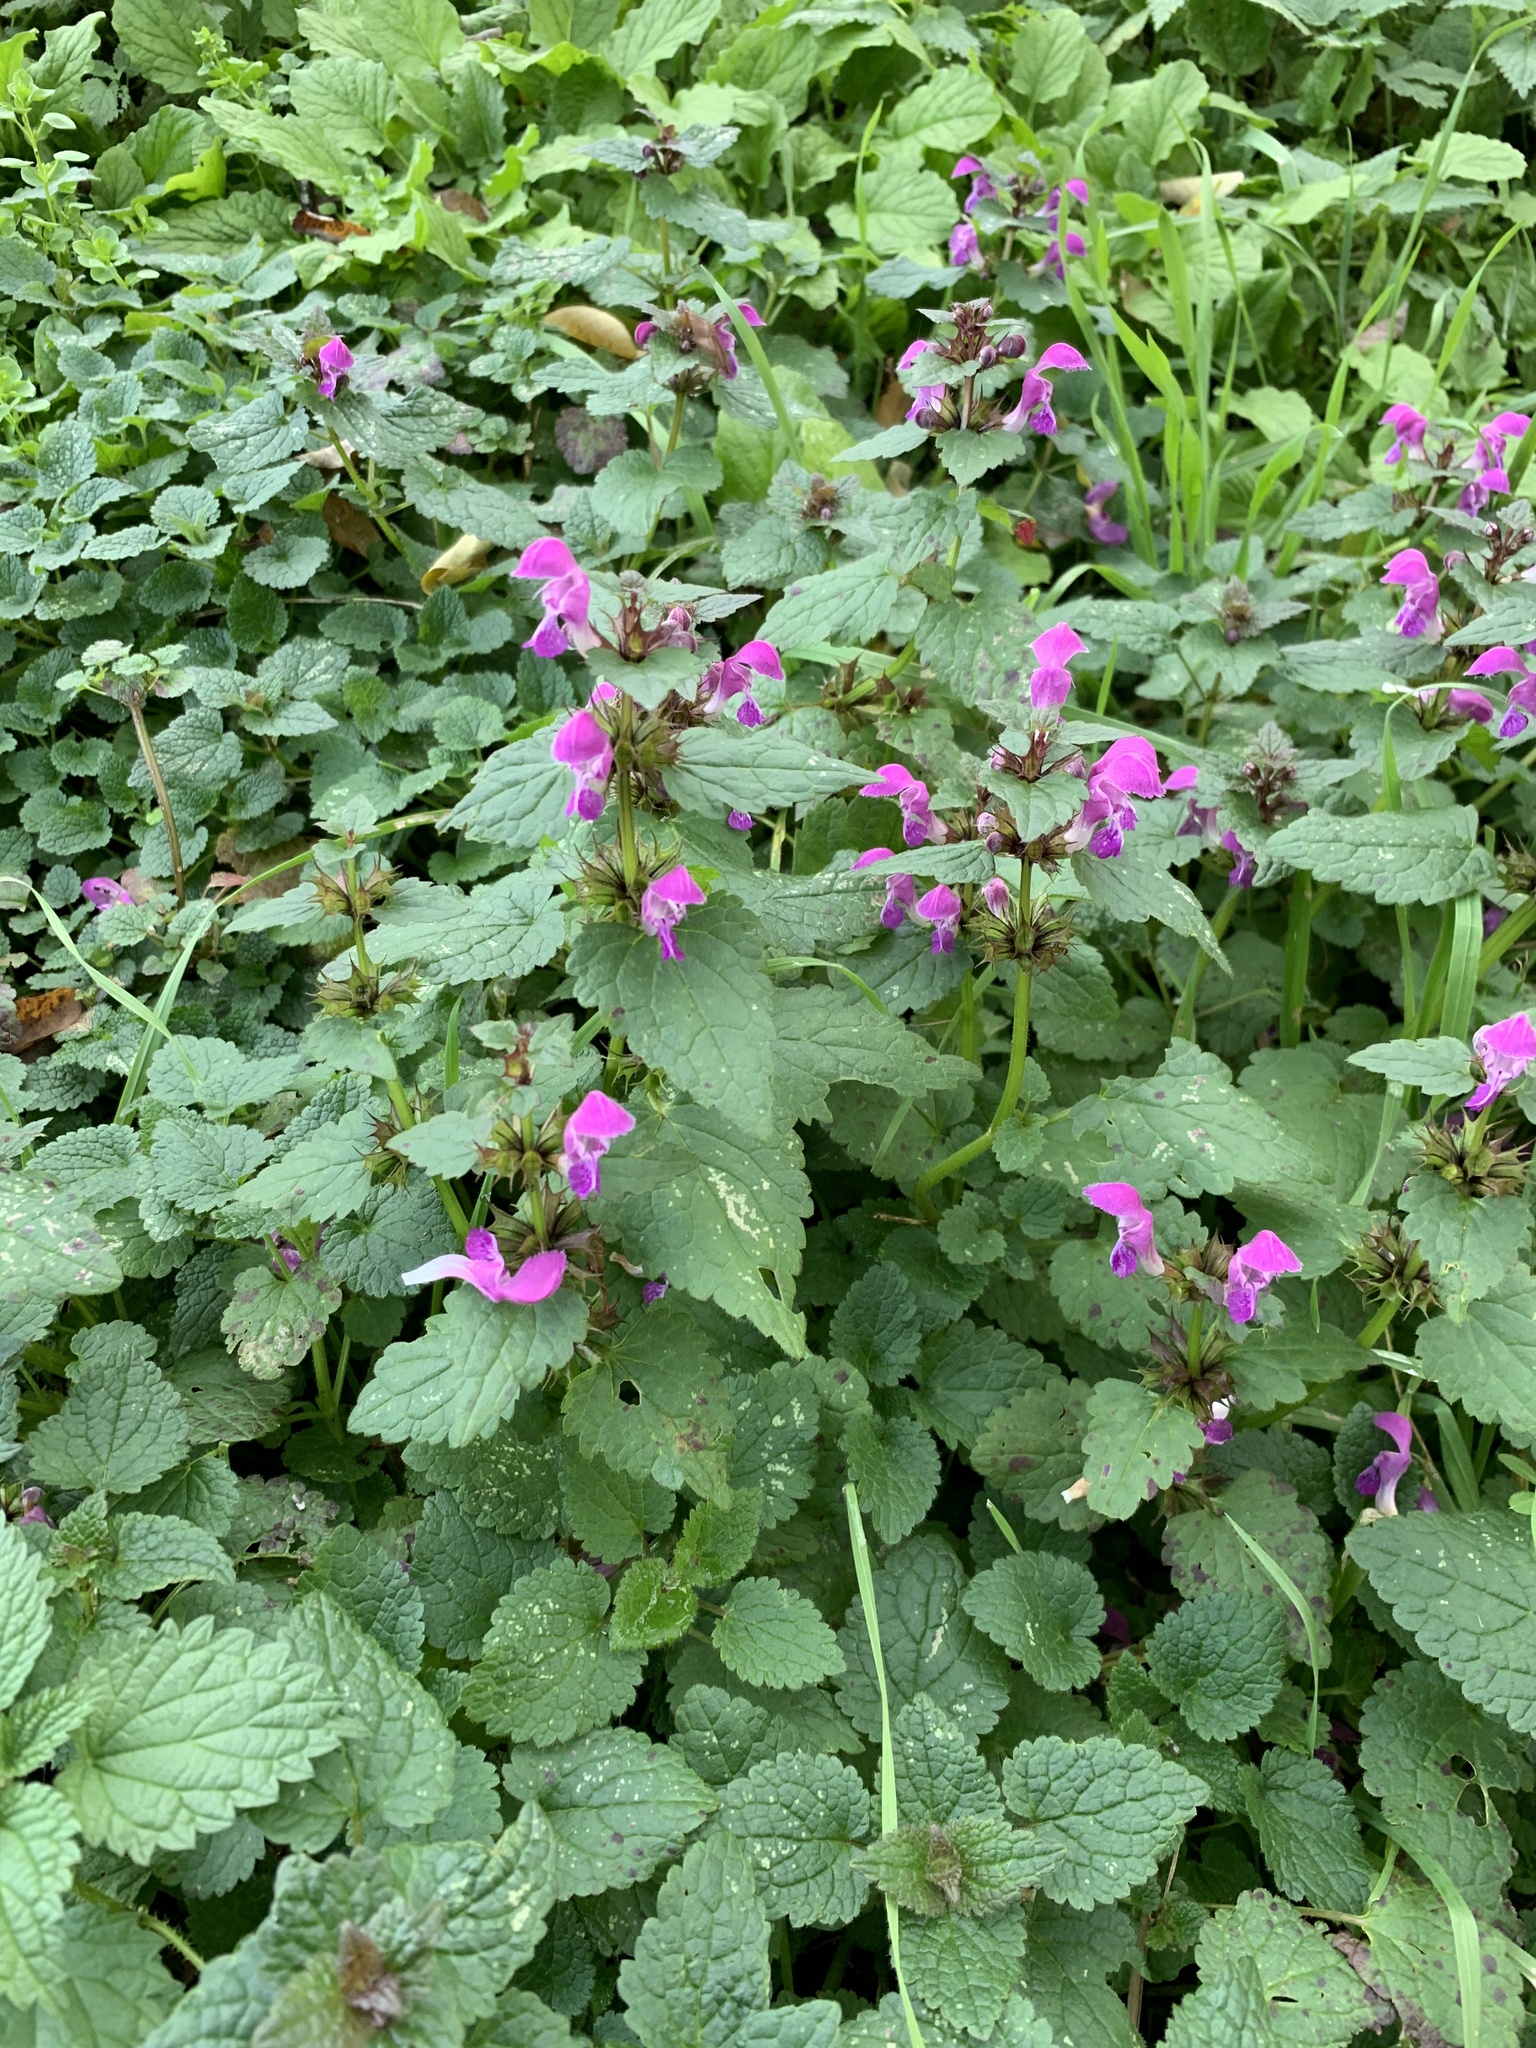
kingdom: Plantae
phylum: Tracheophyta
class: Magnoliopsida
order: Lamiales
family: Lamiaceae
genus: Lamium
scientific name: Lamium maculatum
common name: Spotted dead-nettle
